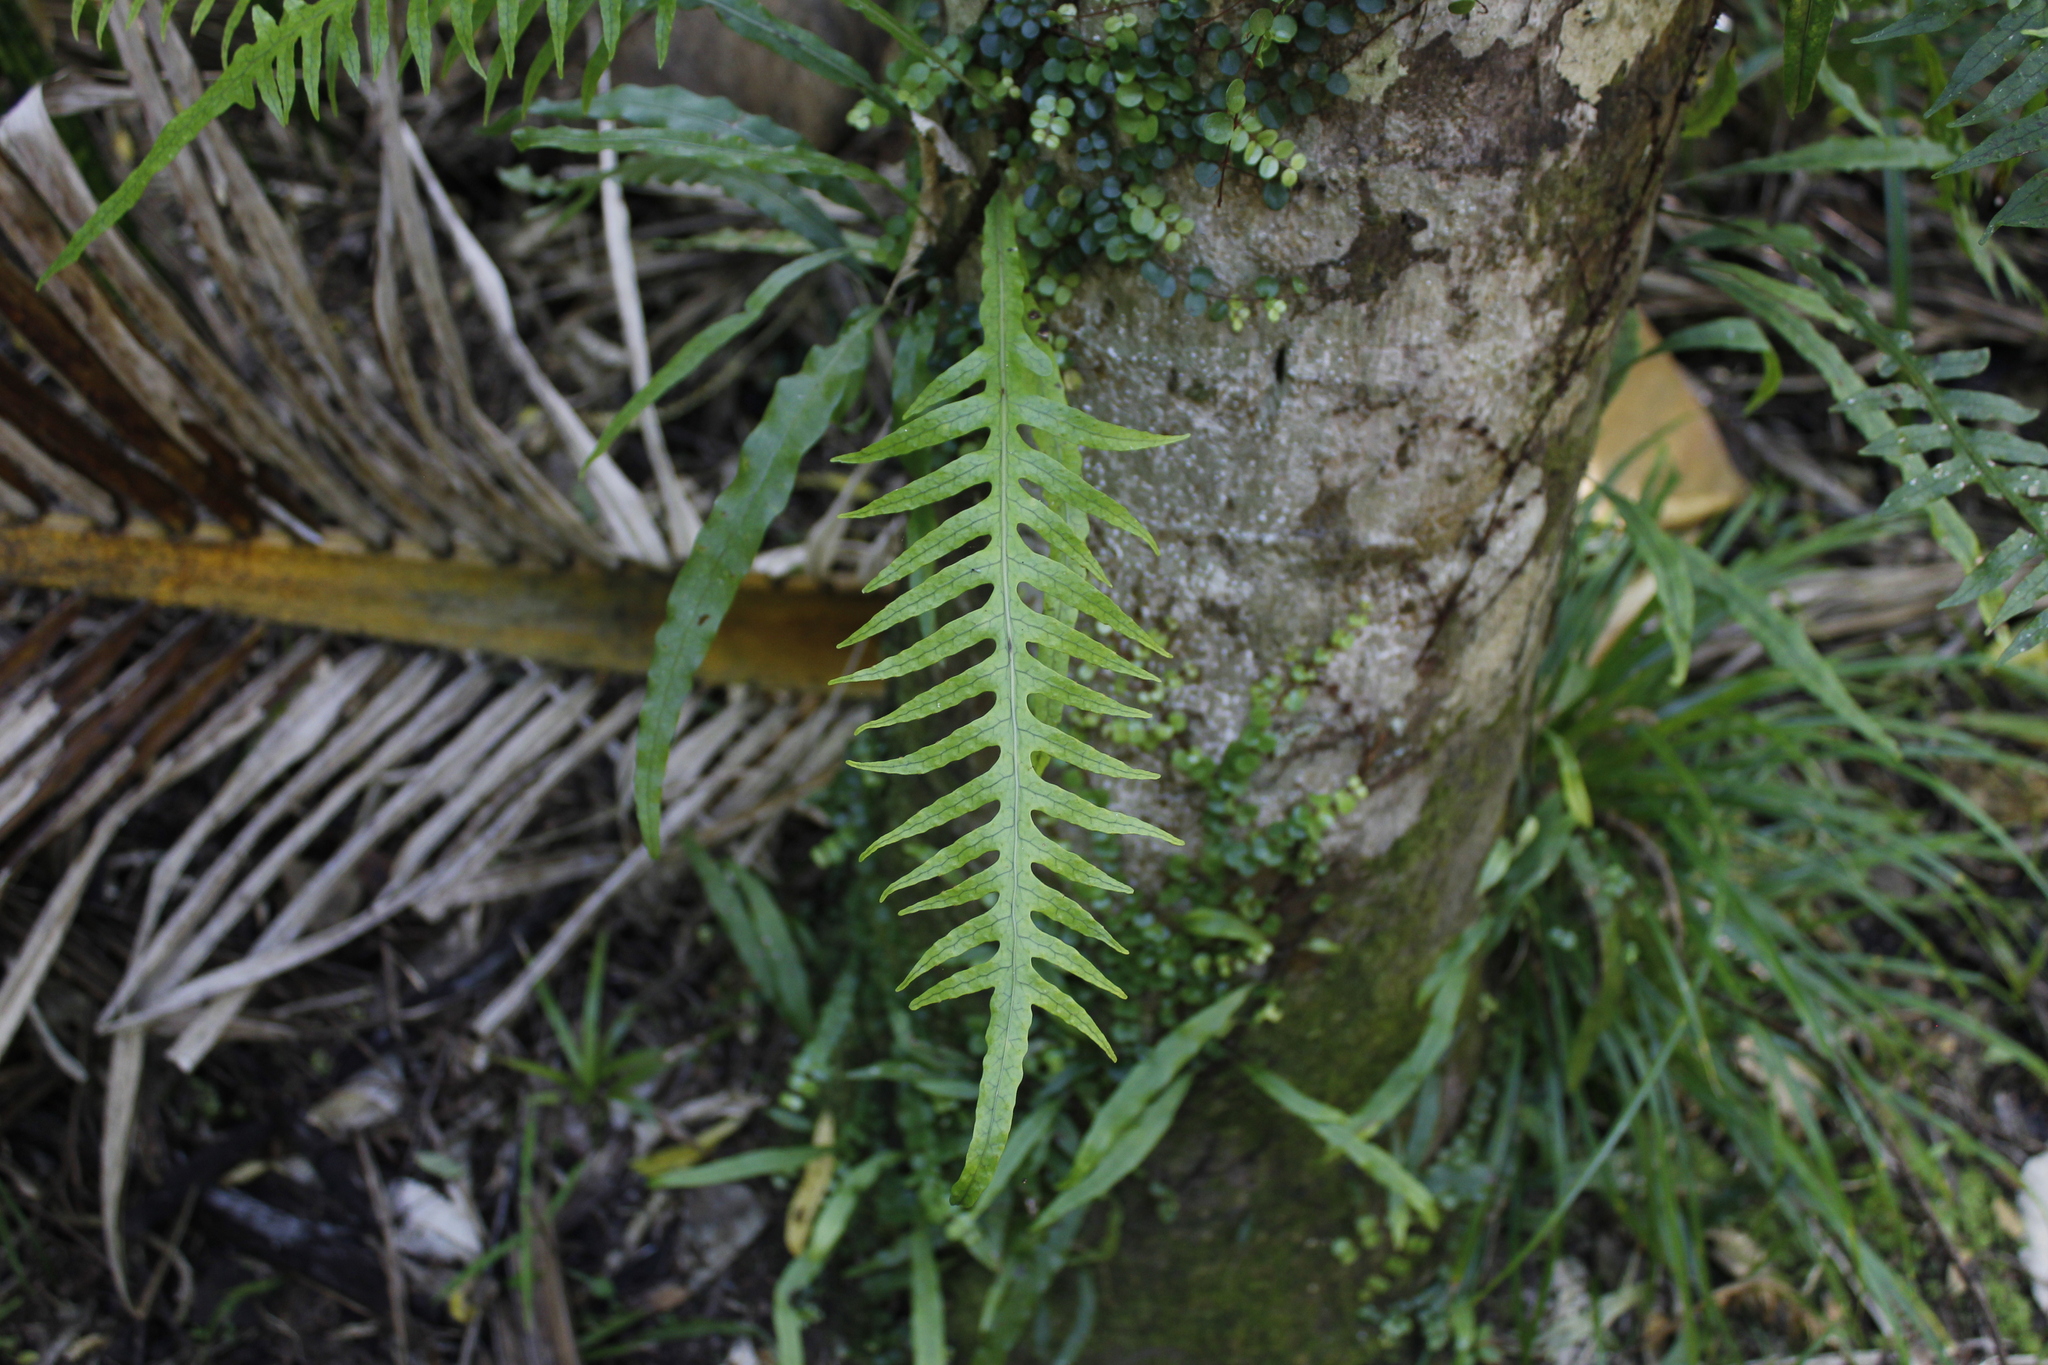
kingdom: Plantae
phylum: Tracheophyta
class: Polypodiopsida
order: Polypodiales
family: Polypodiaceae
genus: Lecanopteris
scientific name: Lecanopteris scandens
